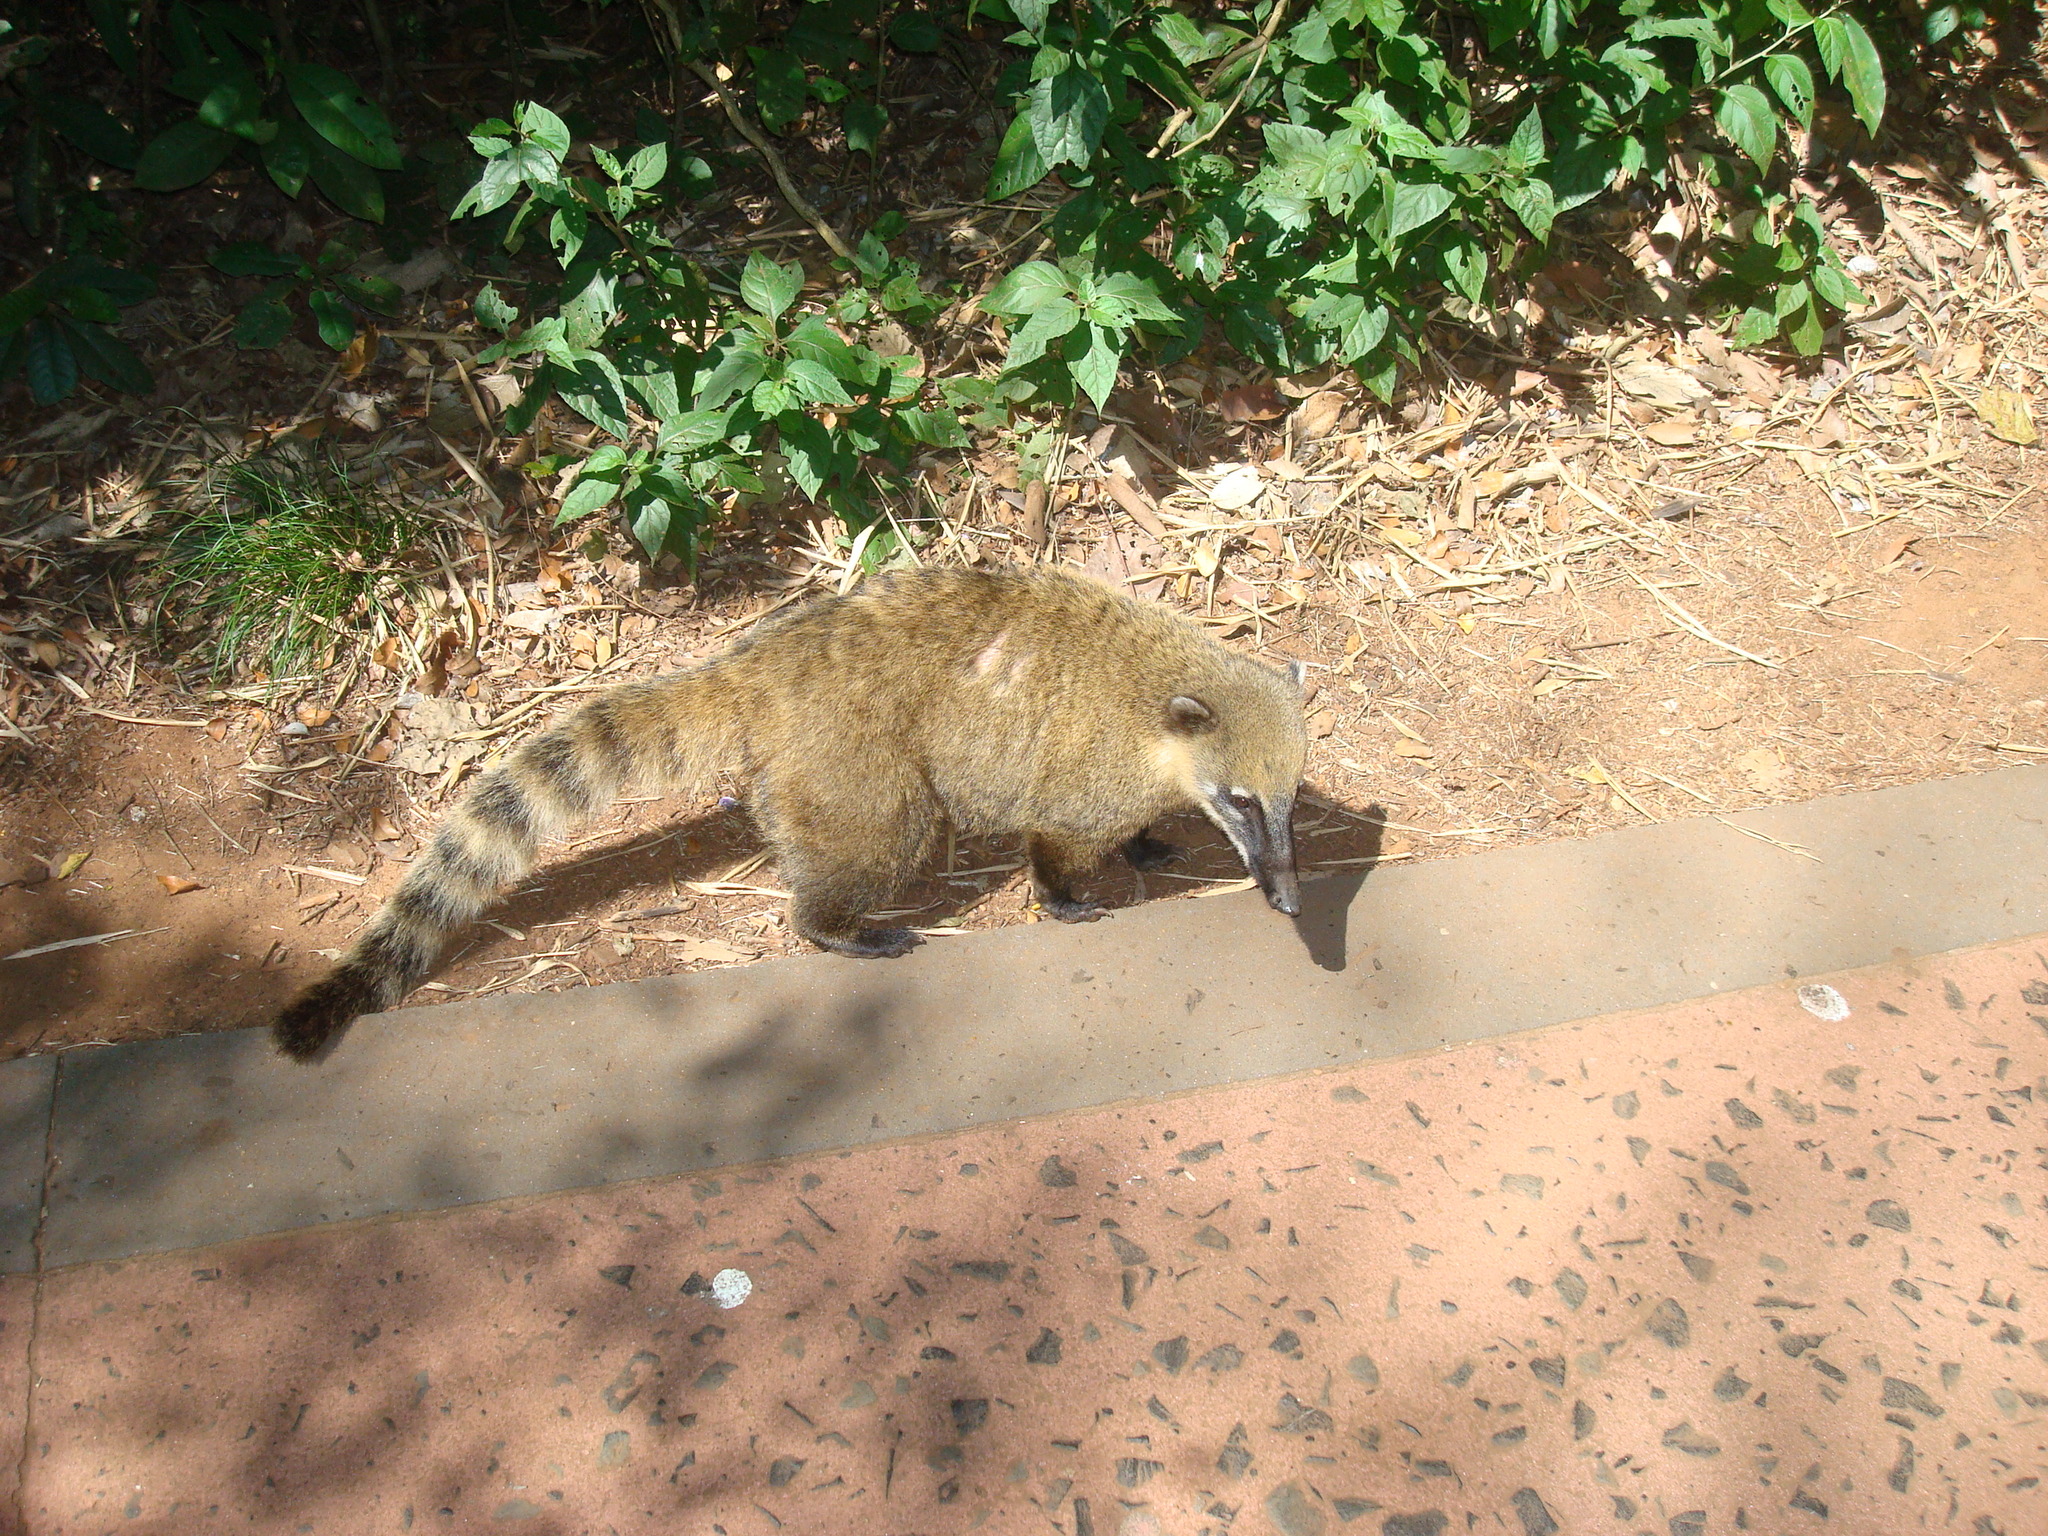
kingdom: Animalia
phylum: Chordata
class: Mammalia
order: Carnivora
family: Procyonidae
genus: Nasua
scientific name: Nasua nasua
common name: South american coati
